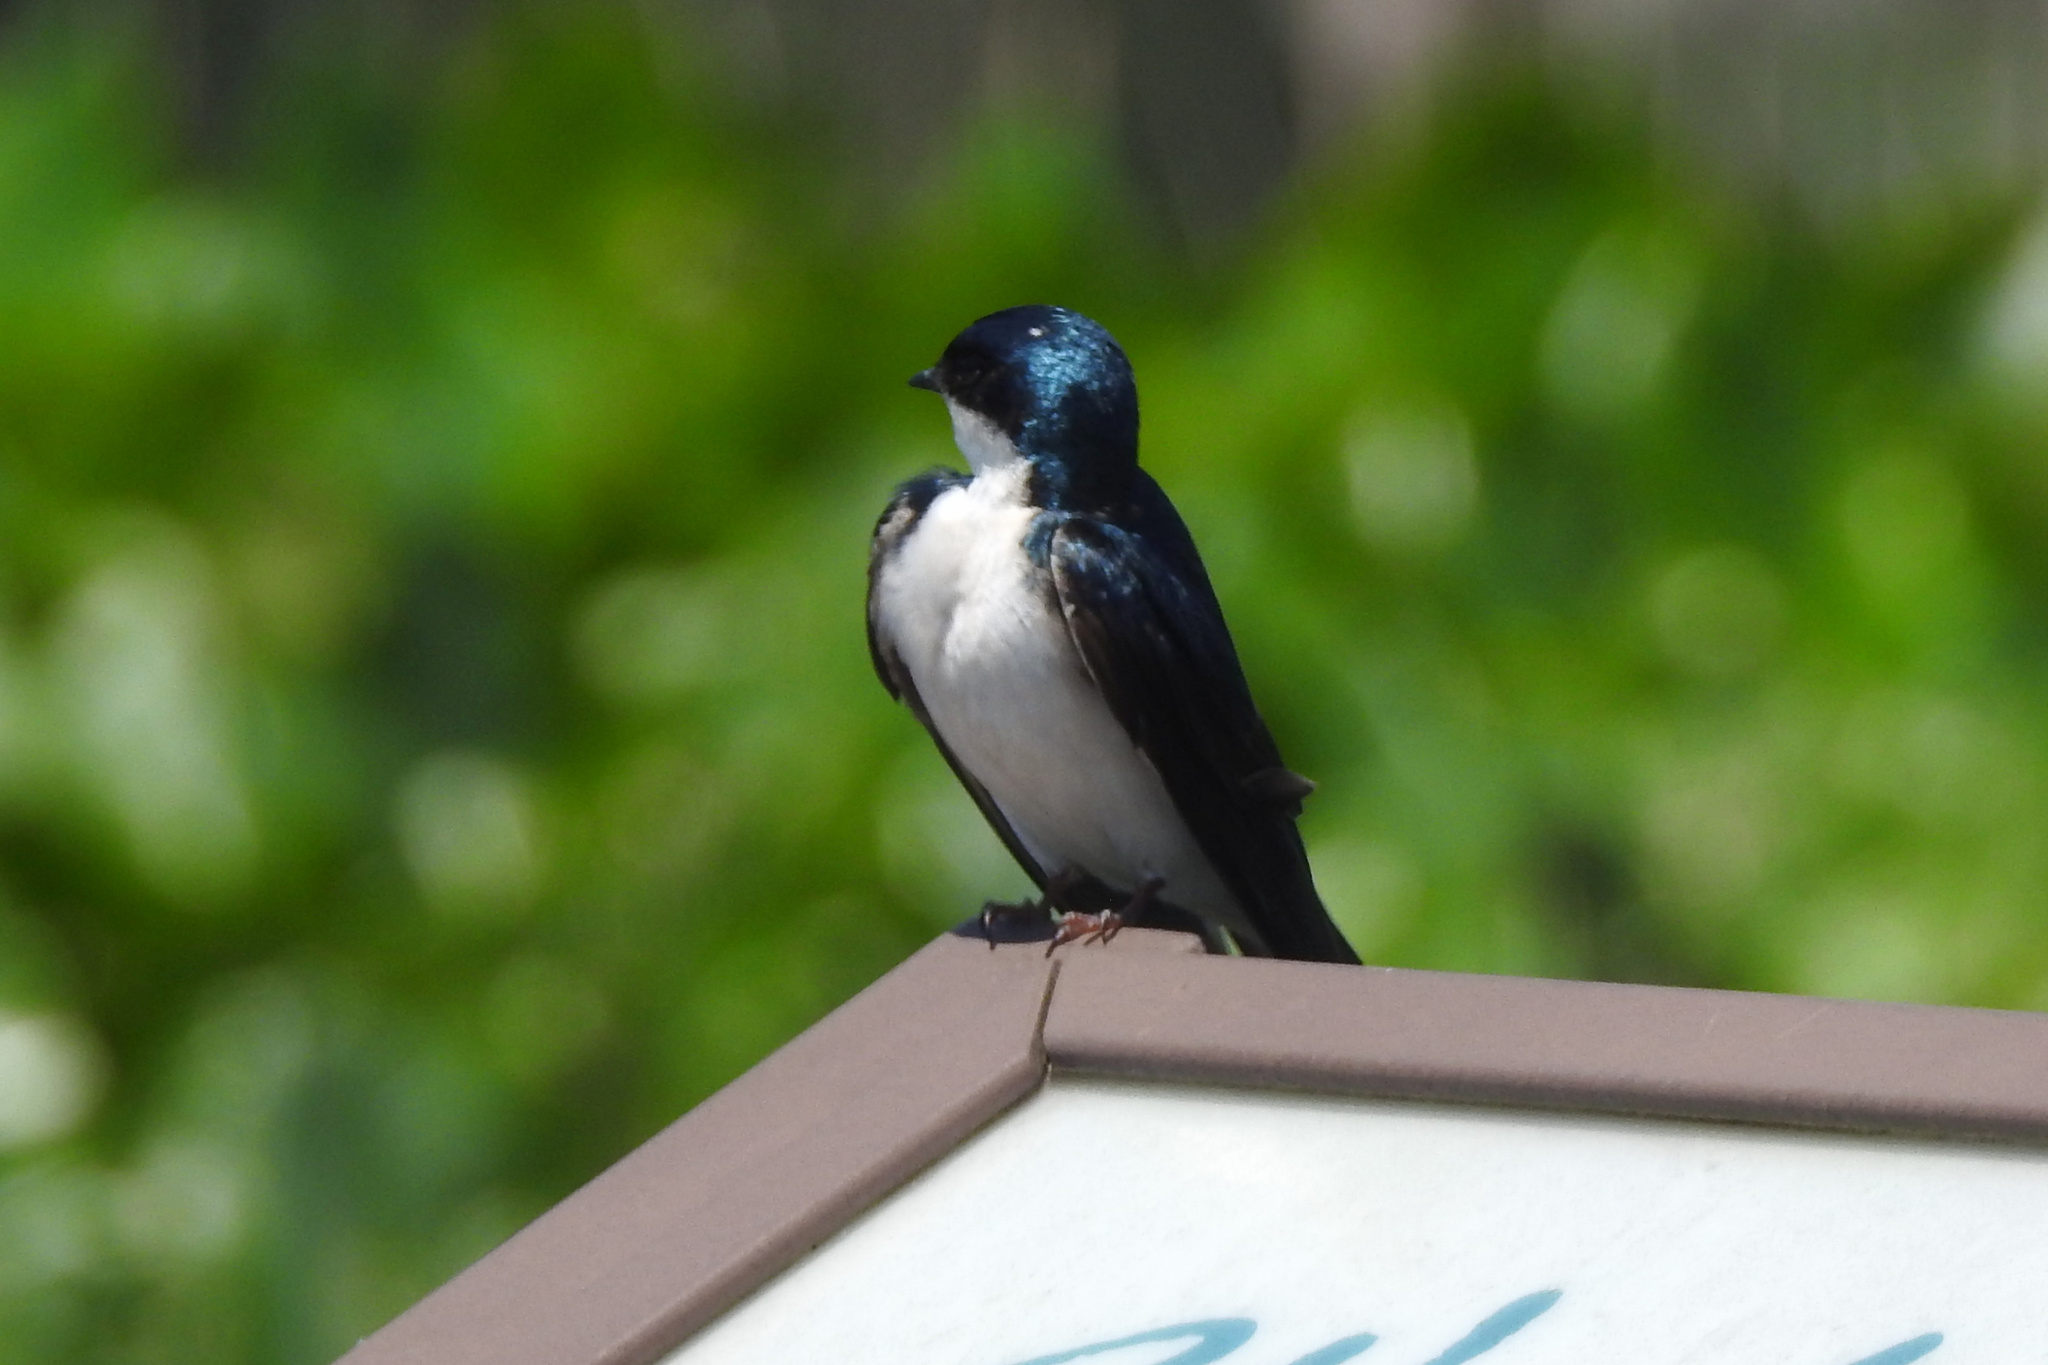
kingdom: Animalia
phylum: Chordata
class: Aves
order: Passeriformes
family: Hirundinidae
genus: Tachycineta
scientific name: Tachycineta bicolor
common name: Tree swallow
